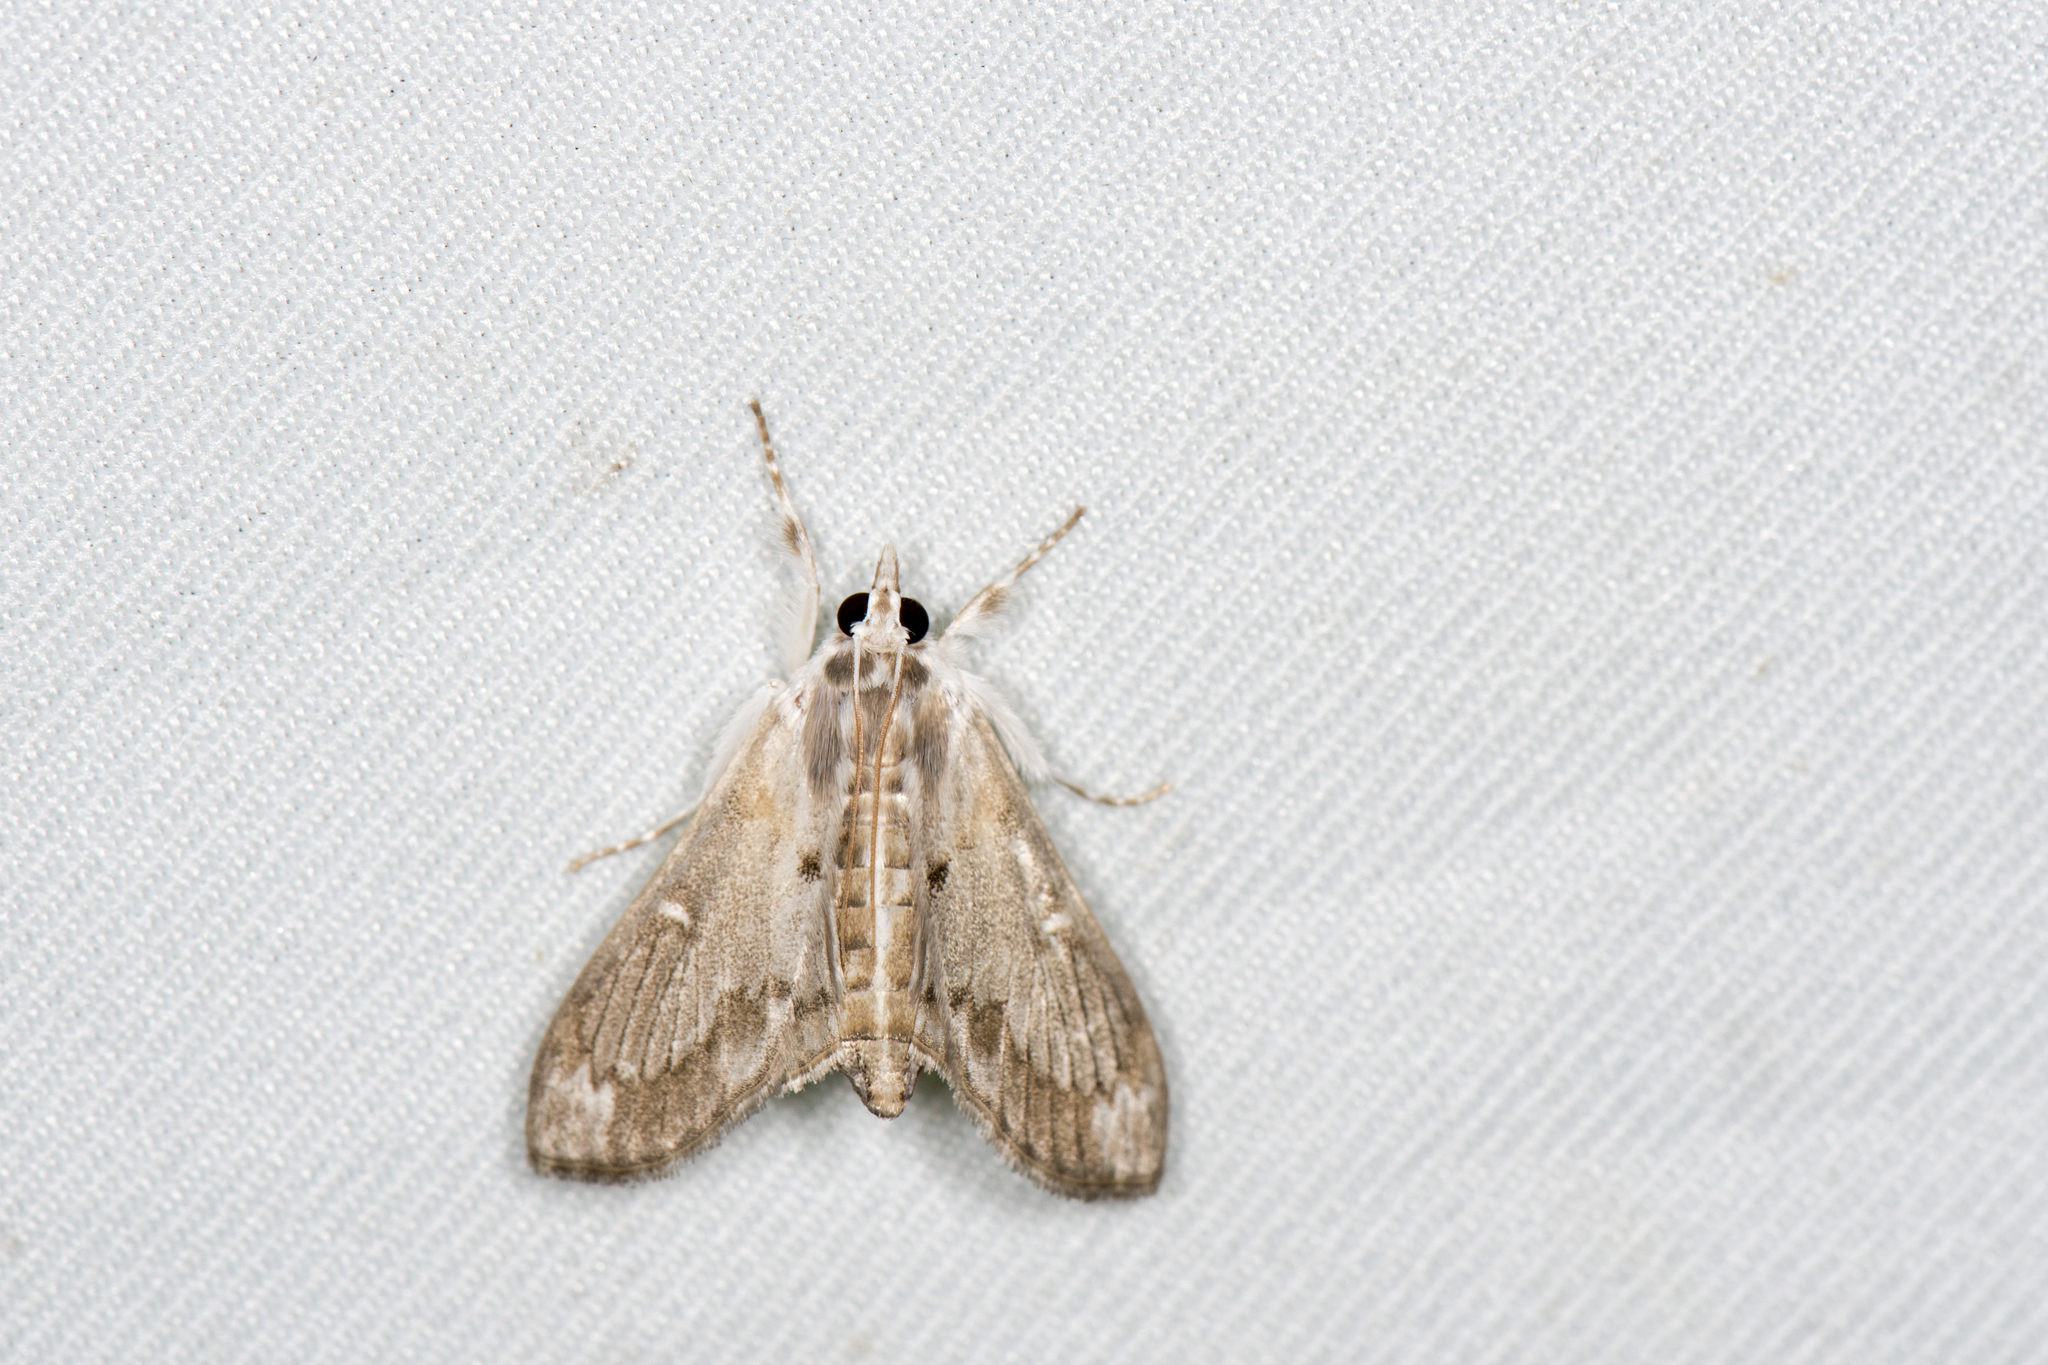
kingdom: Animalia
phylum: Arthropoda
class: Insecta
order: Lepidoptera
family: Crambidae
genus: Cirrhochrista
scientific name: Cirrhochrista spissalis
